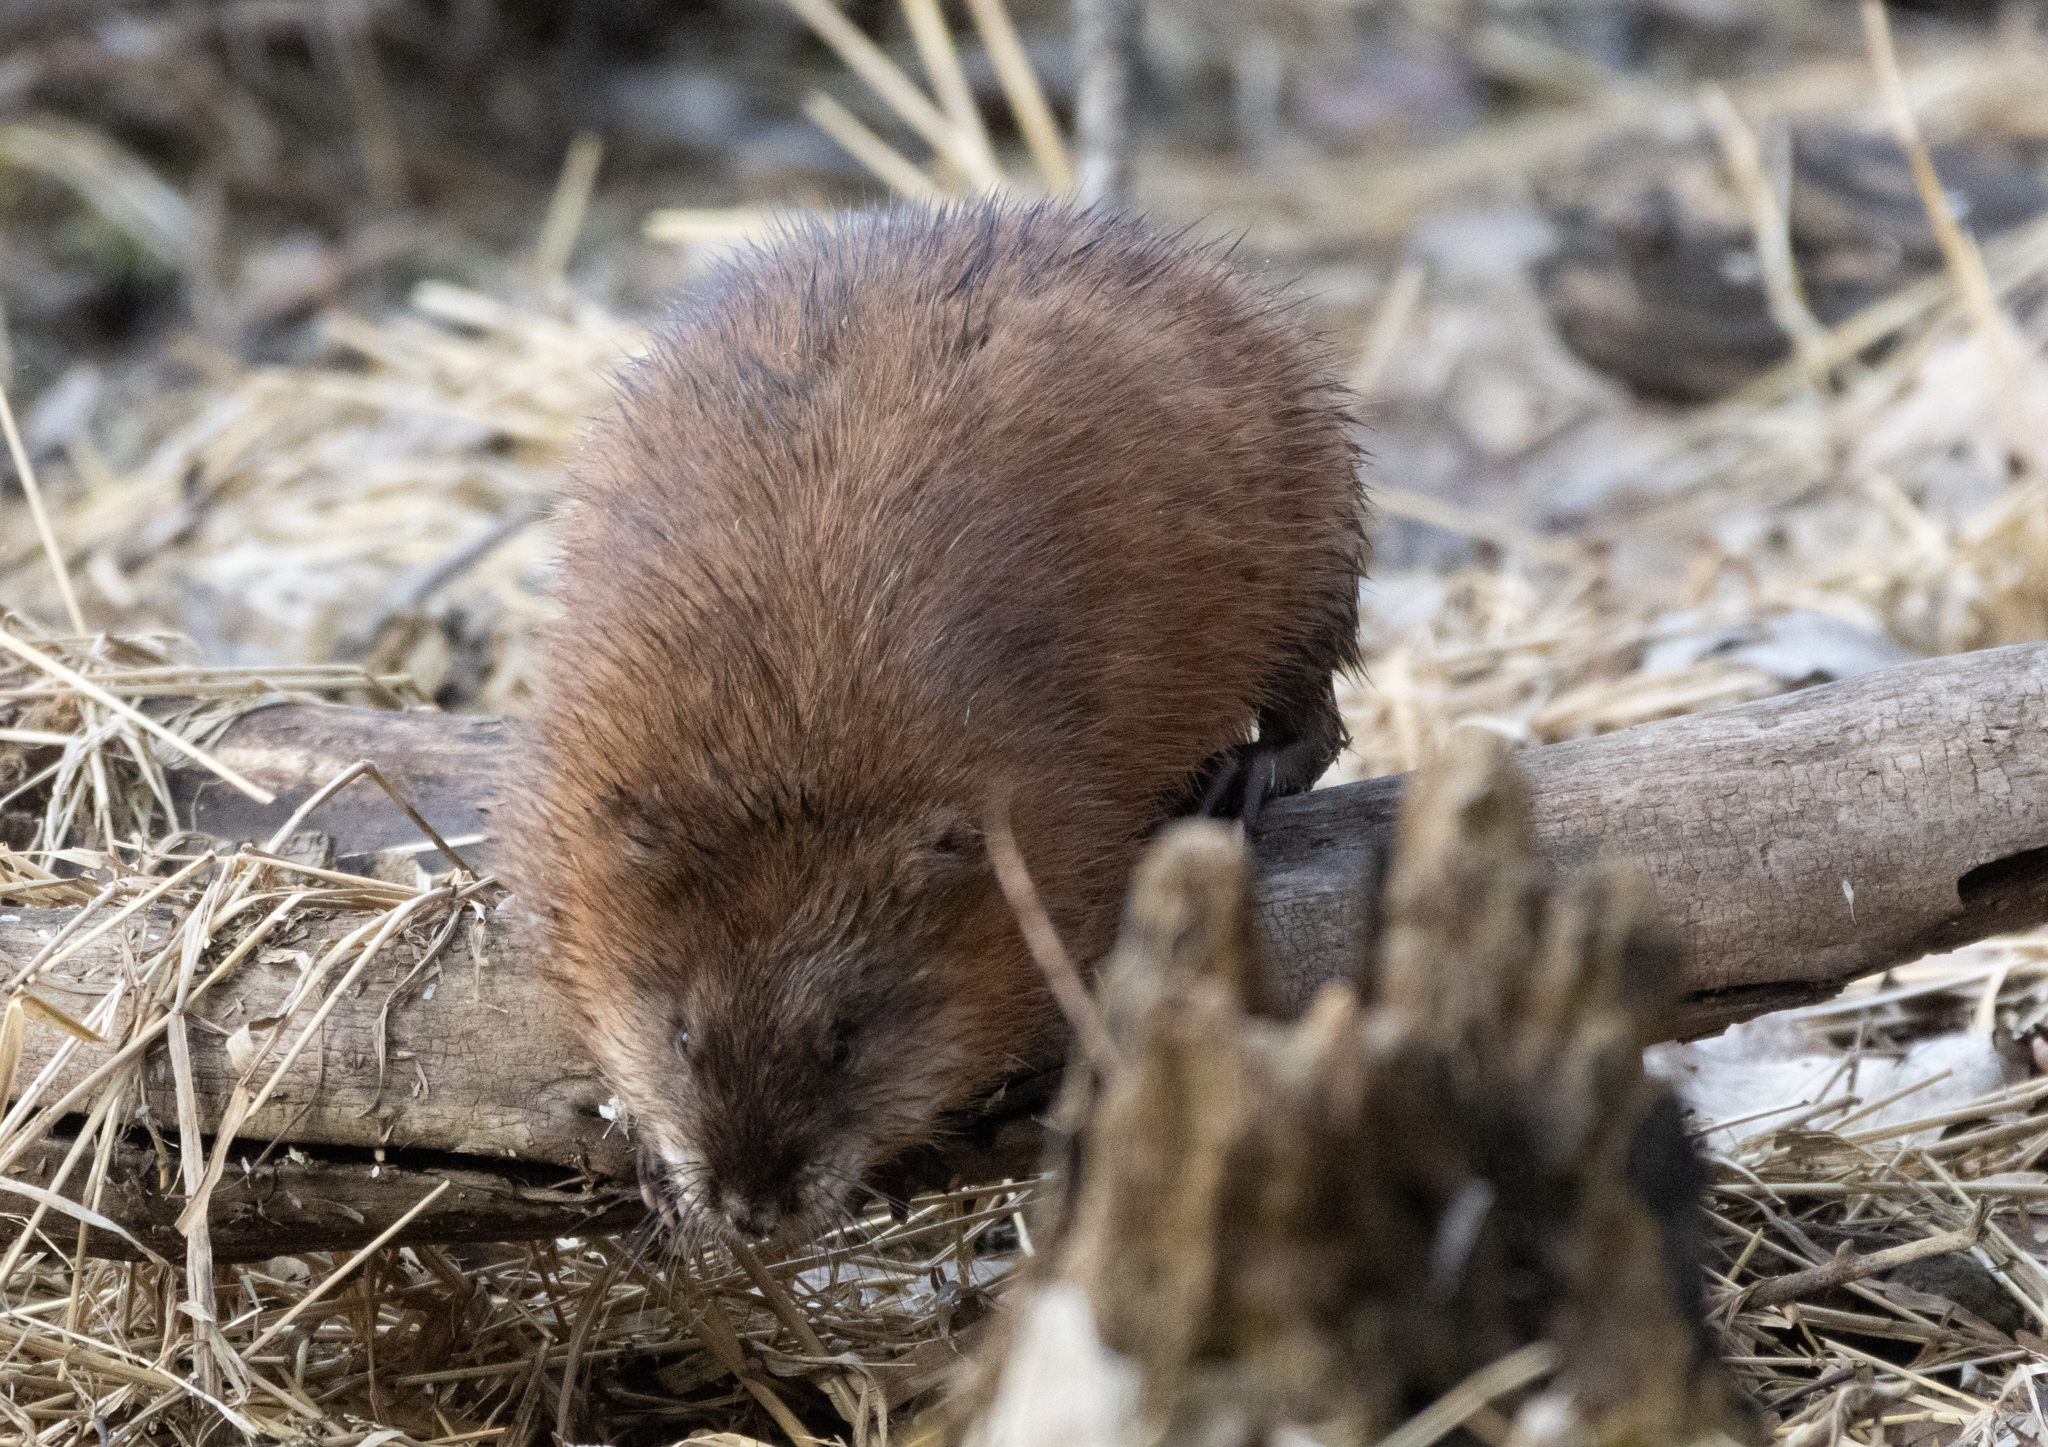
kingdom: Animalia
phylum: Chordata
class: Mammalia
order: Rodentia
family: Cricetidae
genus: Ondatra
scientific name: Ondatra zibethicus
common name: Muskrat
